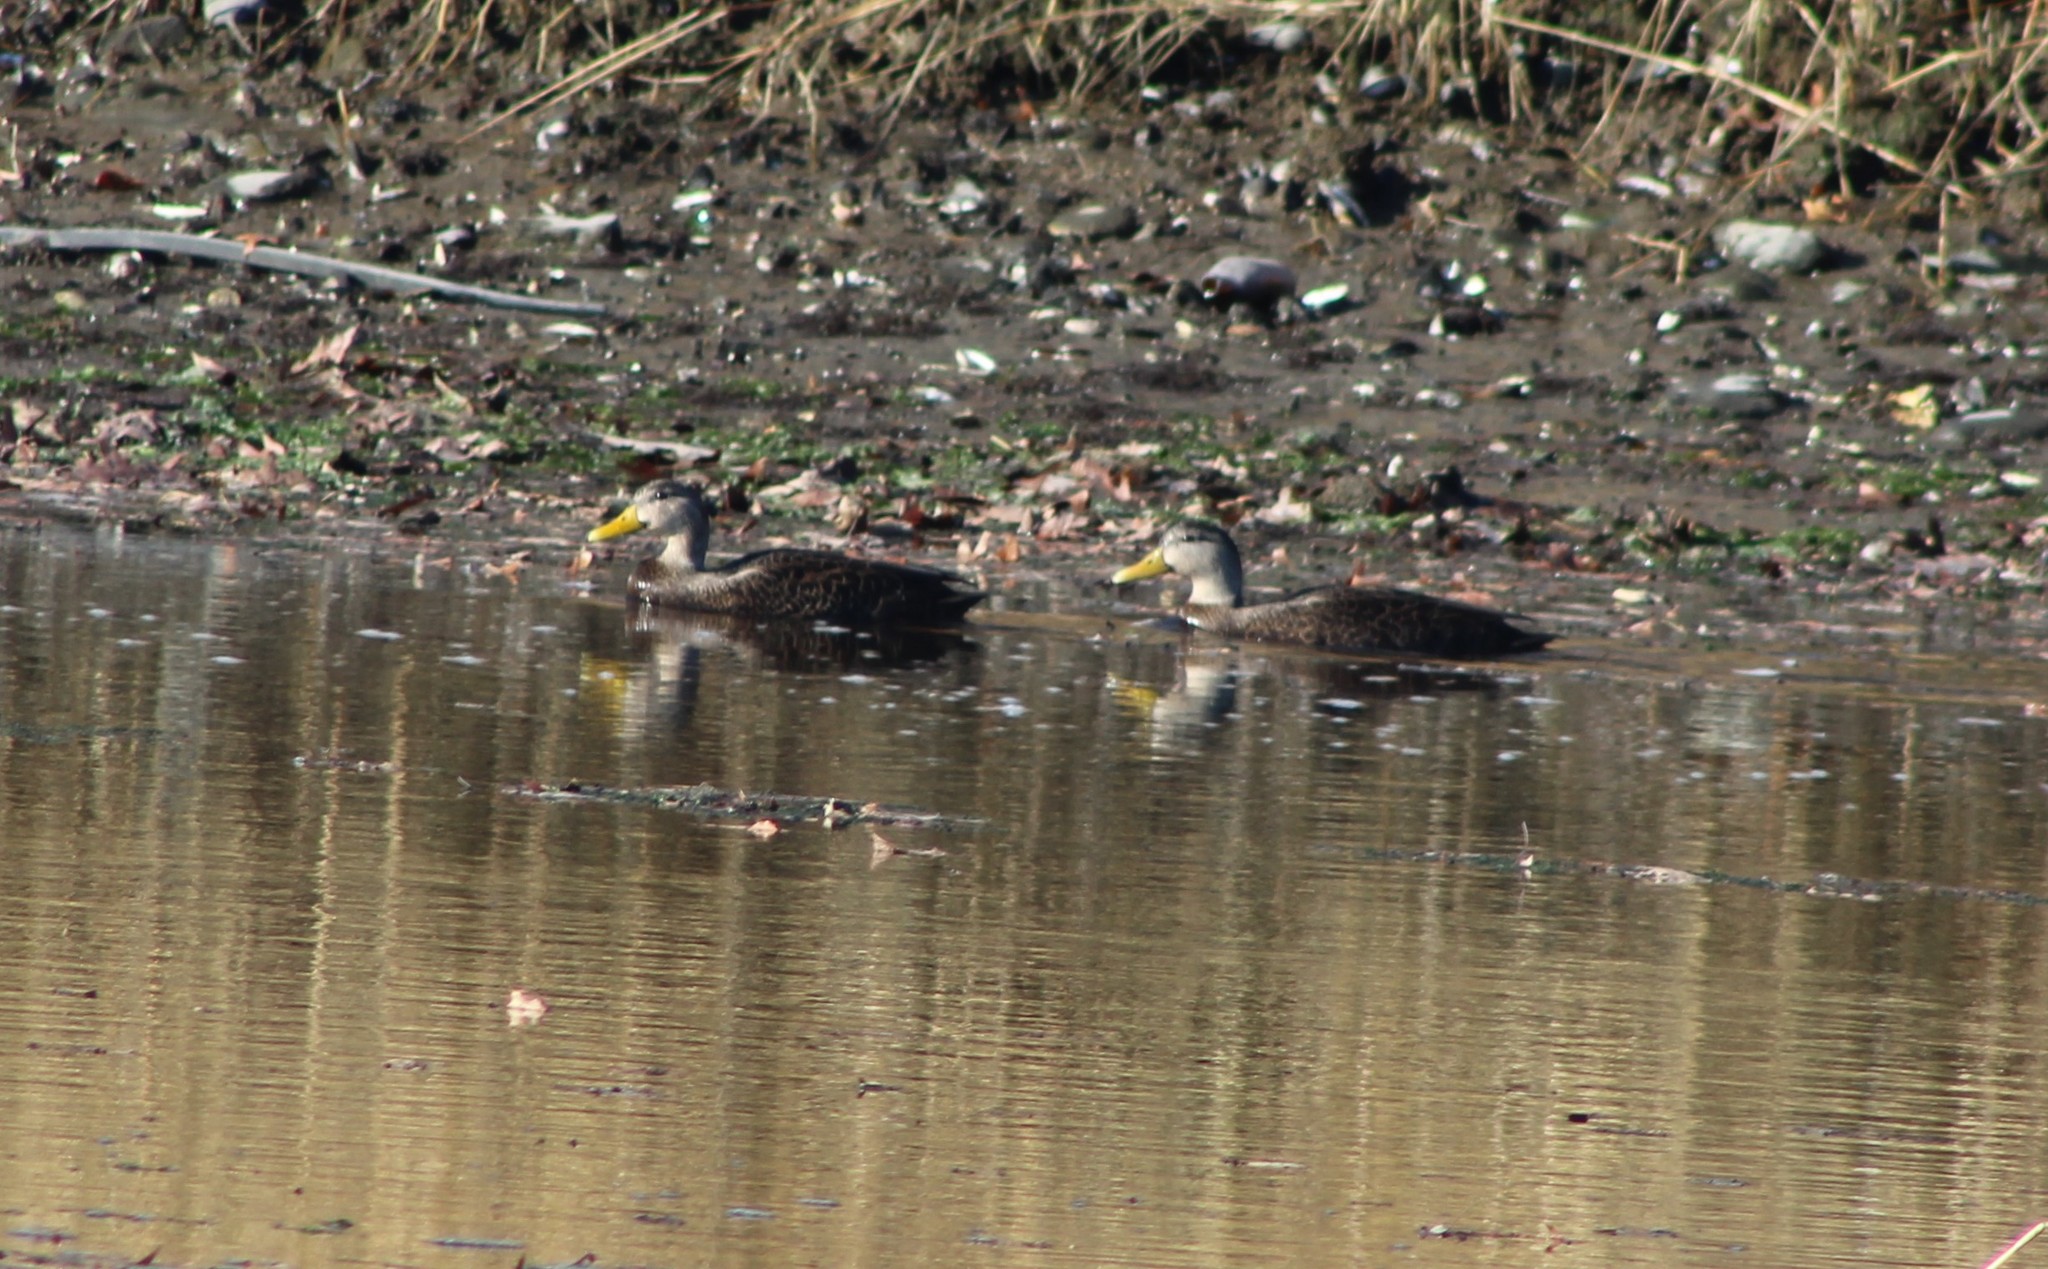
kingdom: Animalia
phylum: Chordata
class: Aves
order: Anseriformes
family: Anatidae
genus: Anas
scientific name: Anas rubripes
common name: American black duck
